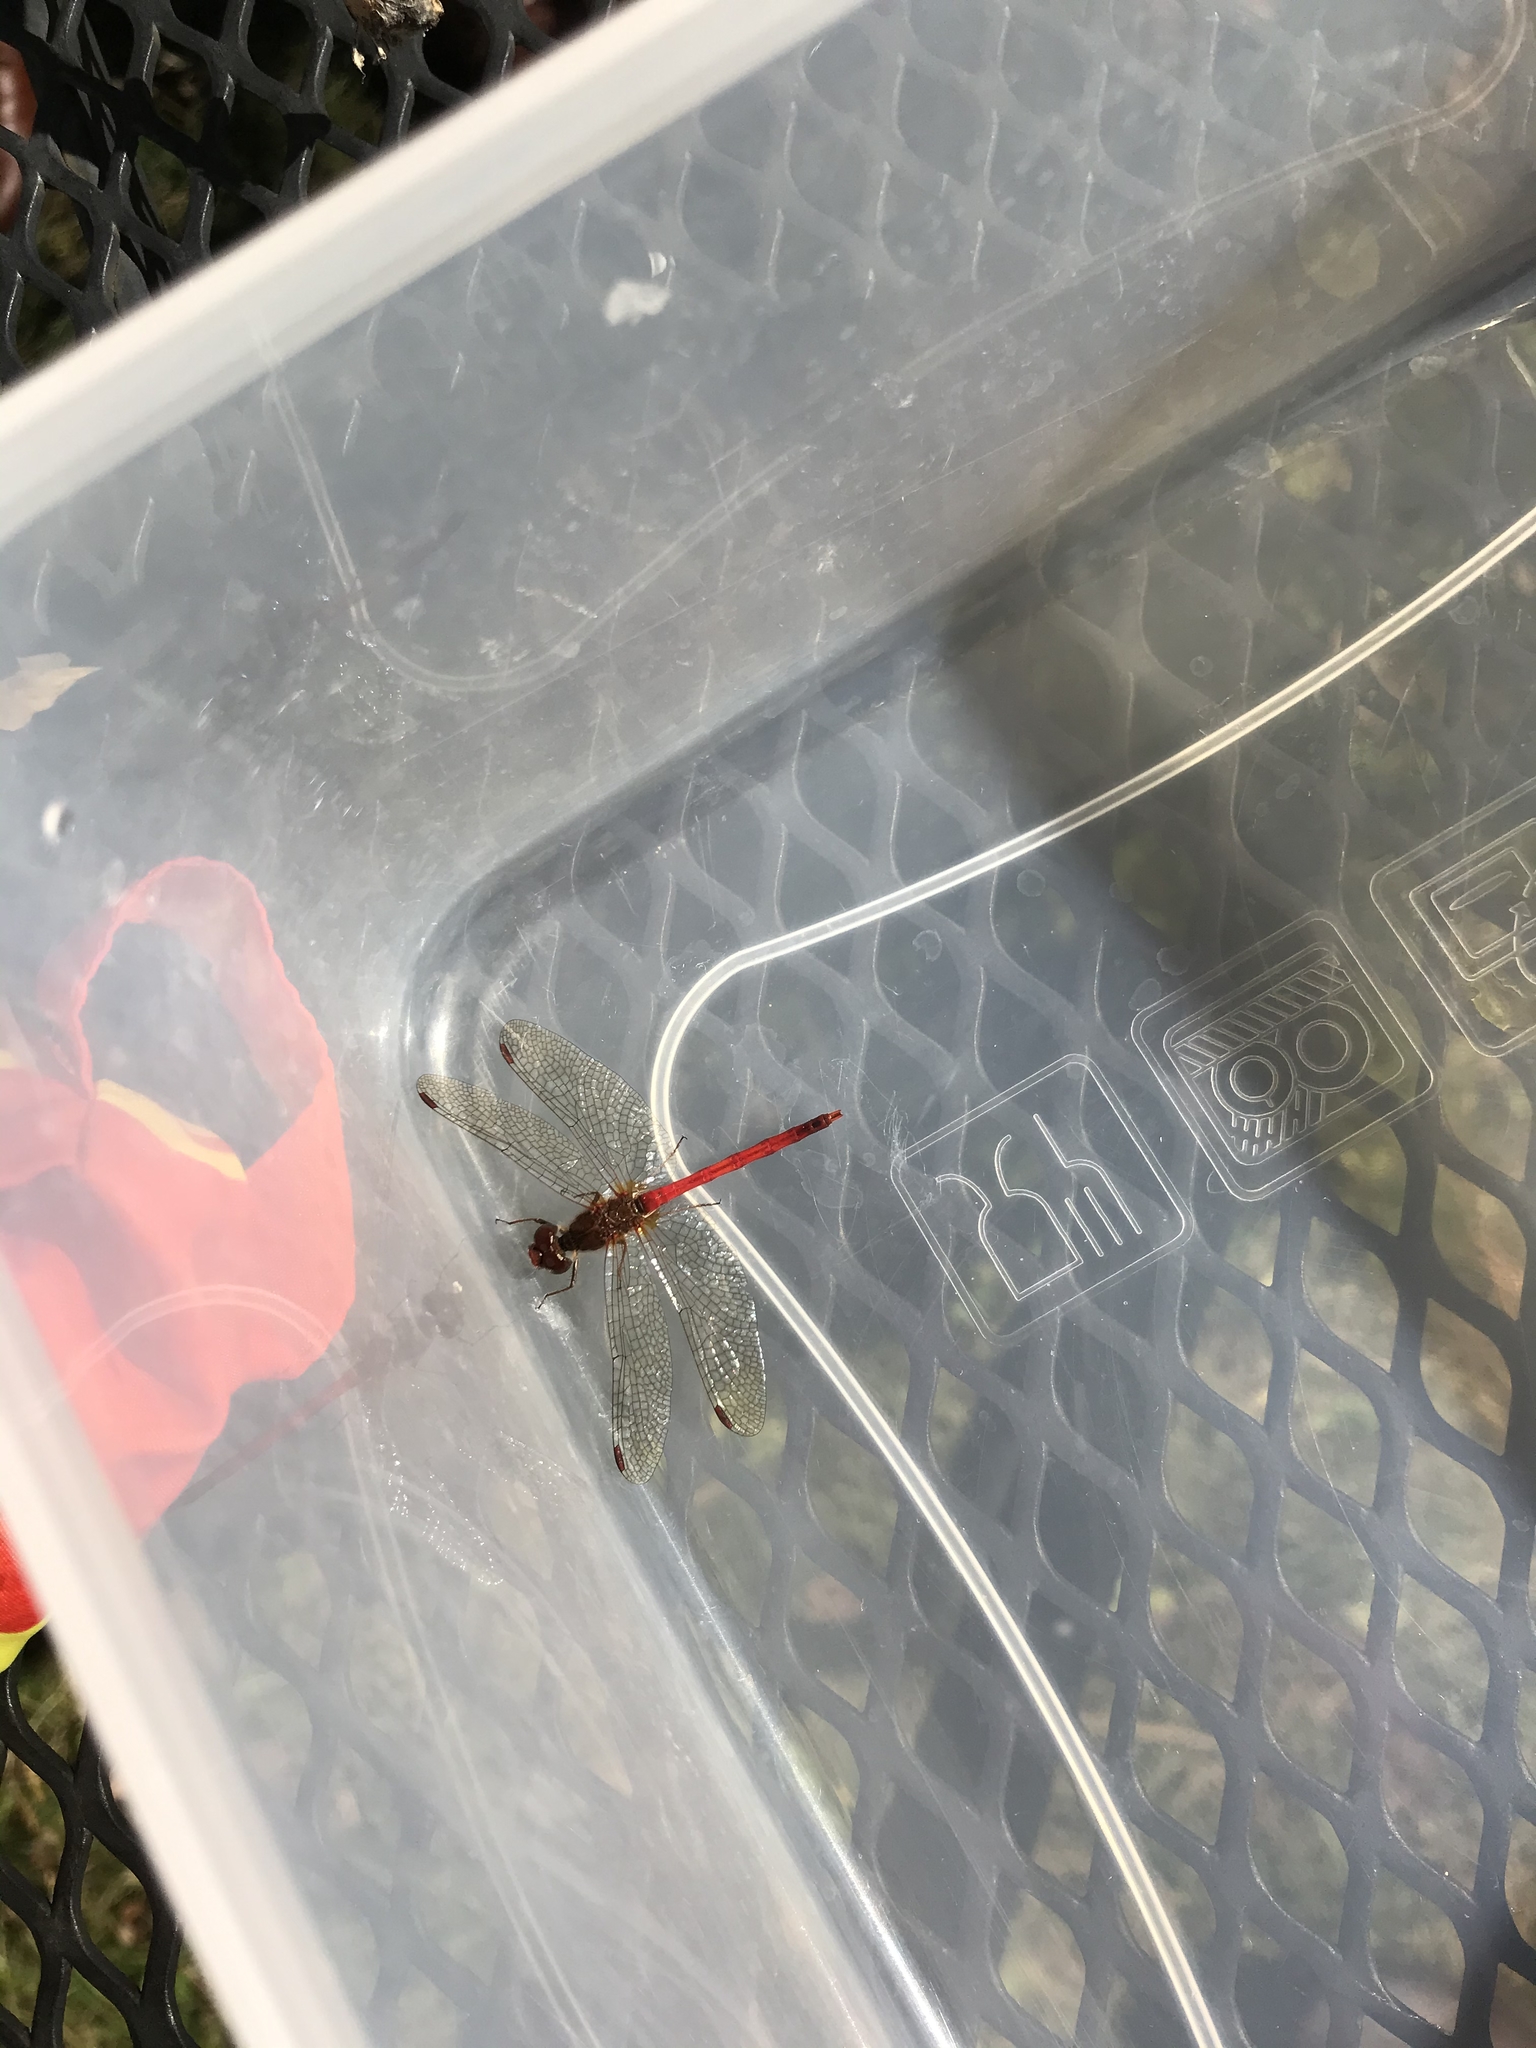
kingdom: Animalia
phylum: Arthropoda
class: Insecta
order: Odonata
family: Libellulidae
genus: Sympetrum
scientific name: Sympetrum vicinum
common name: Autumn meadowhawk
